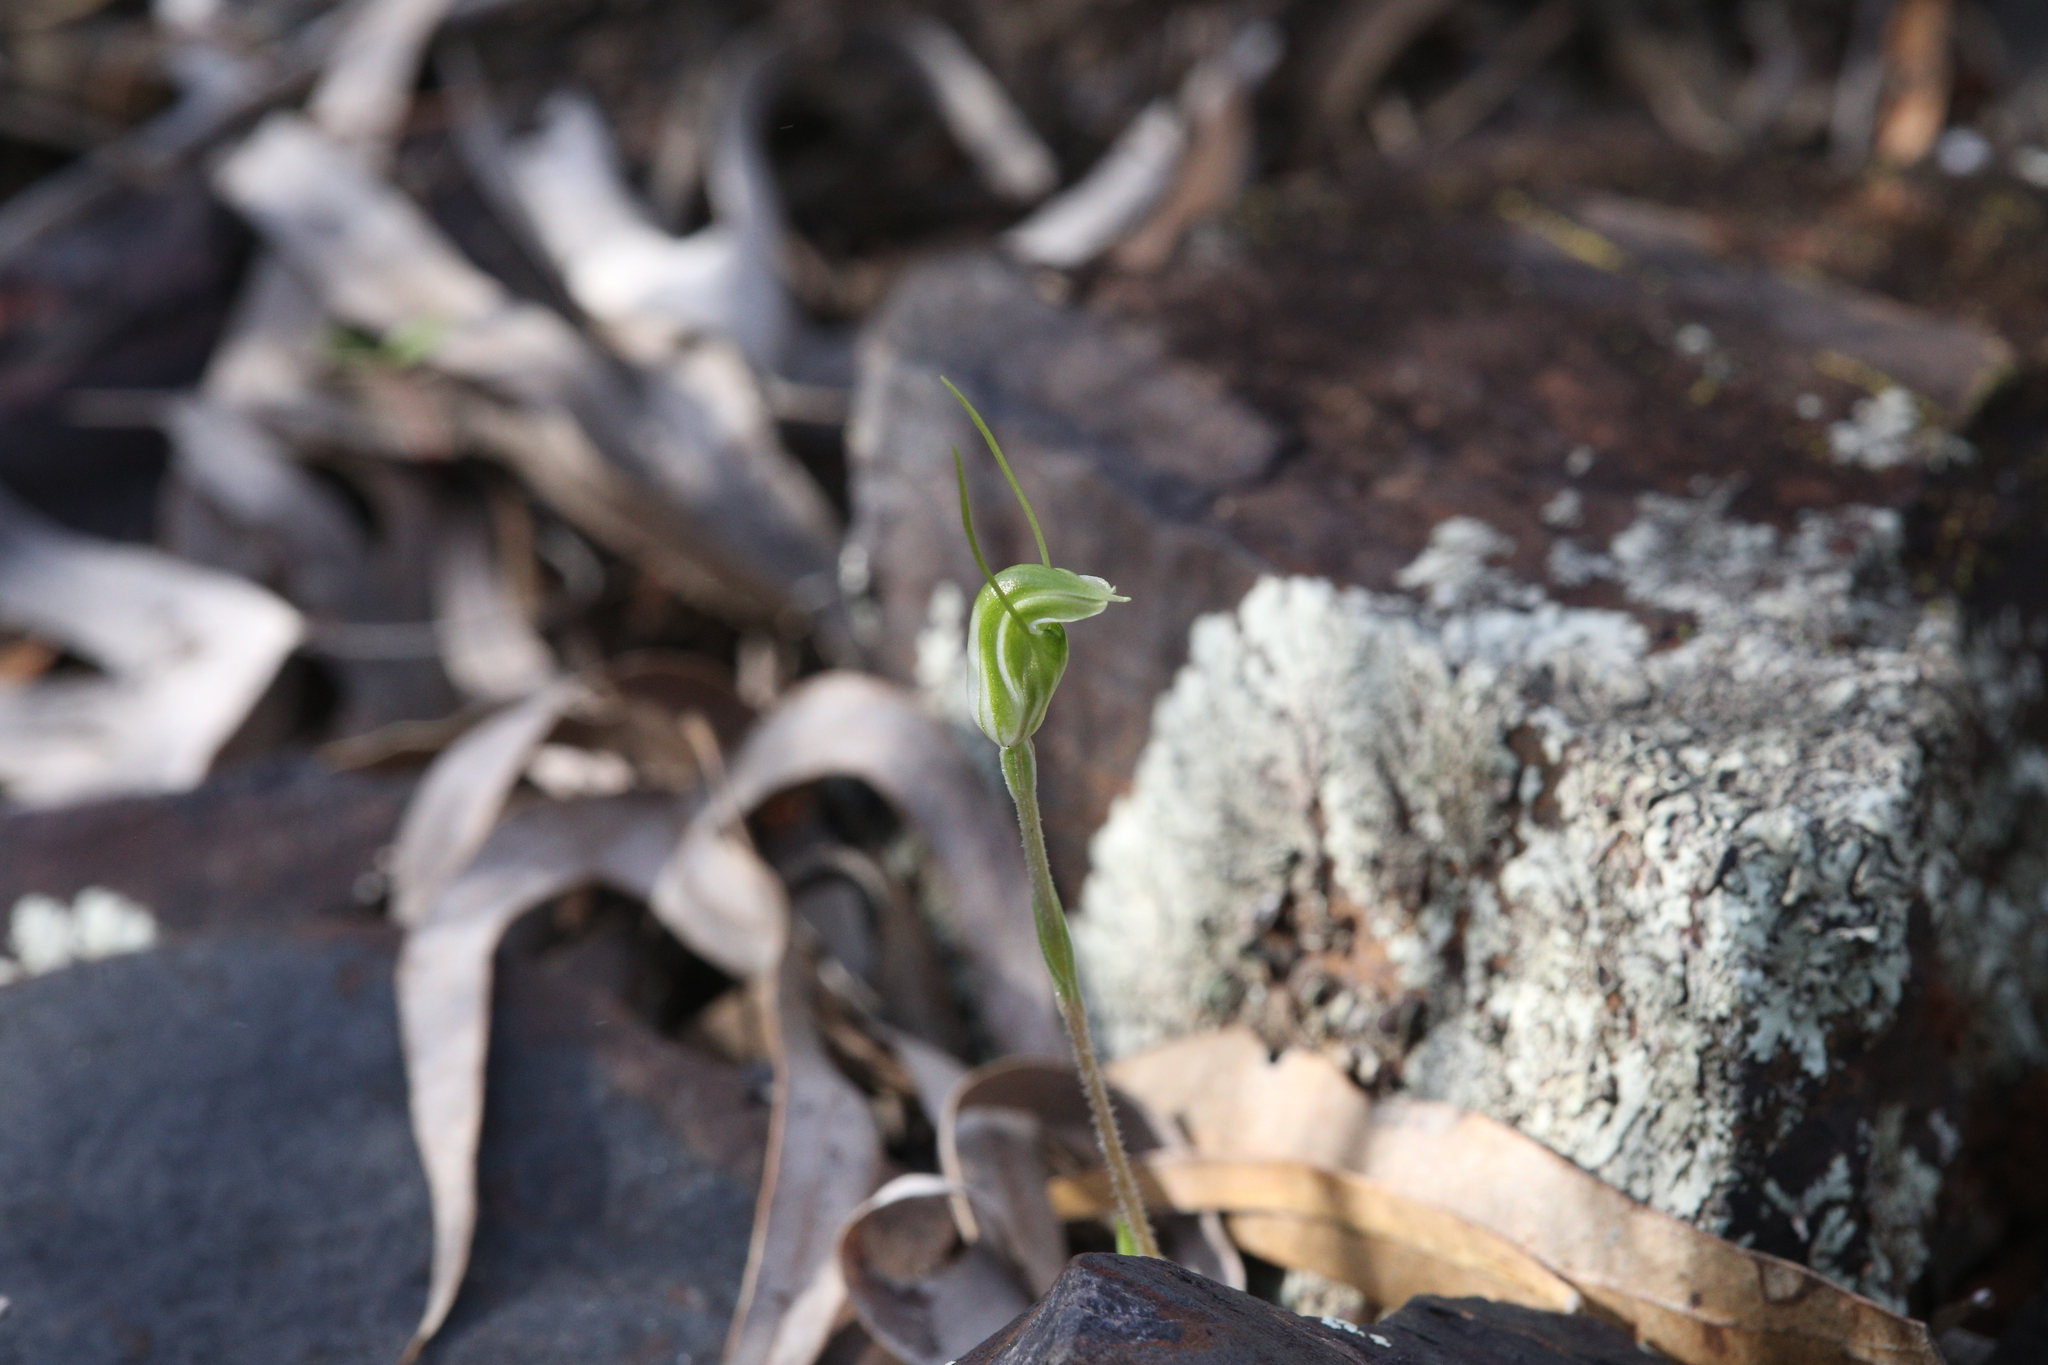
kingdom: Plantae
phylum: Tracheophyta
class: Liliopsida
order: Asparagales
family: Orchidaceae
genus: Pterostylis
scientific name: Pterostylis setulosa
